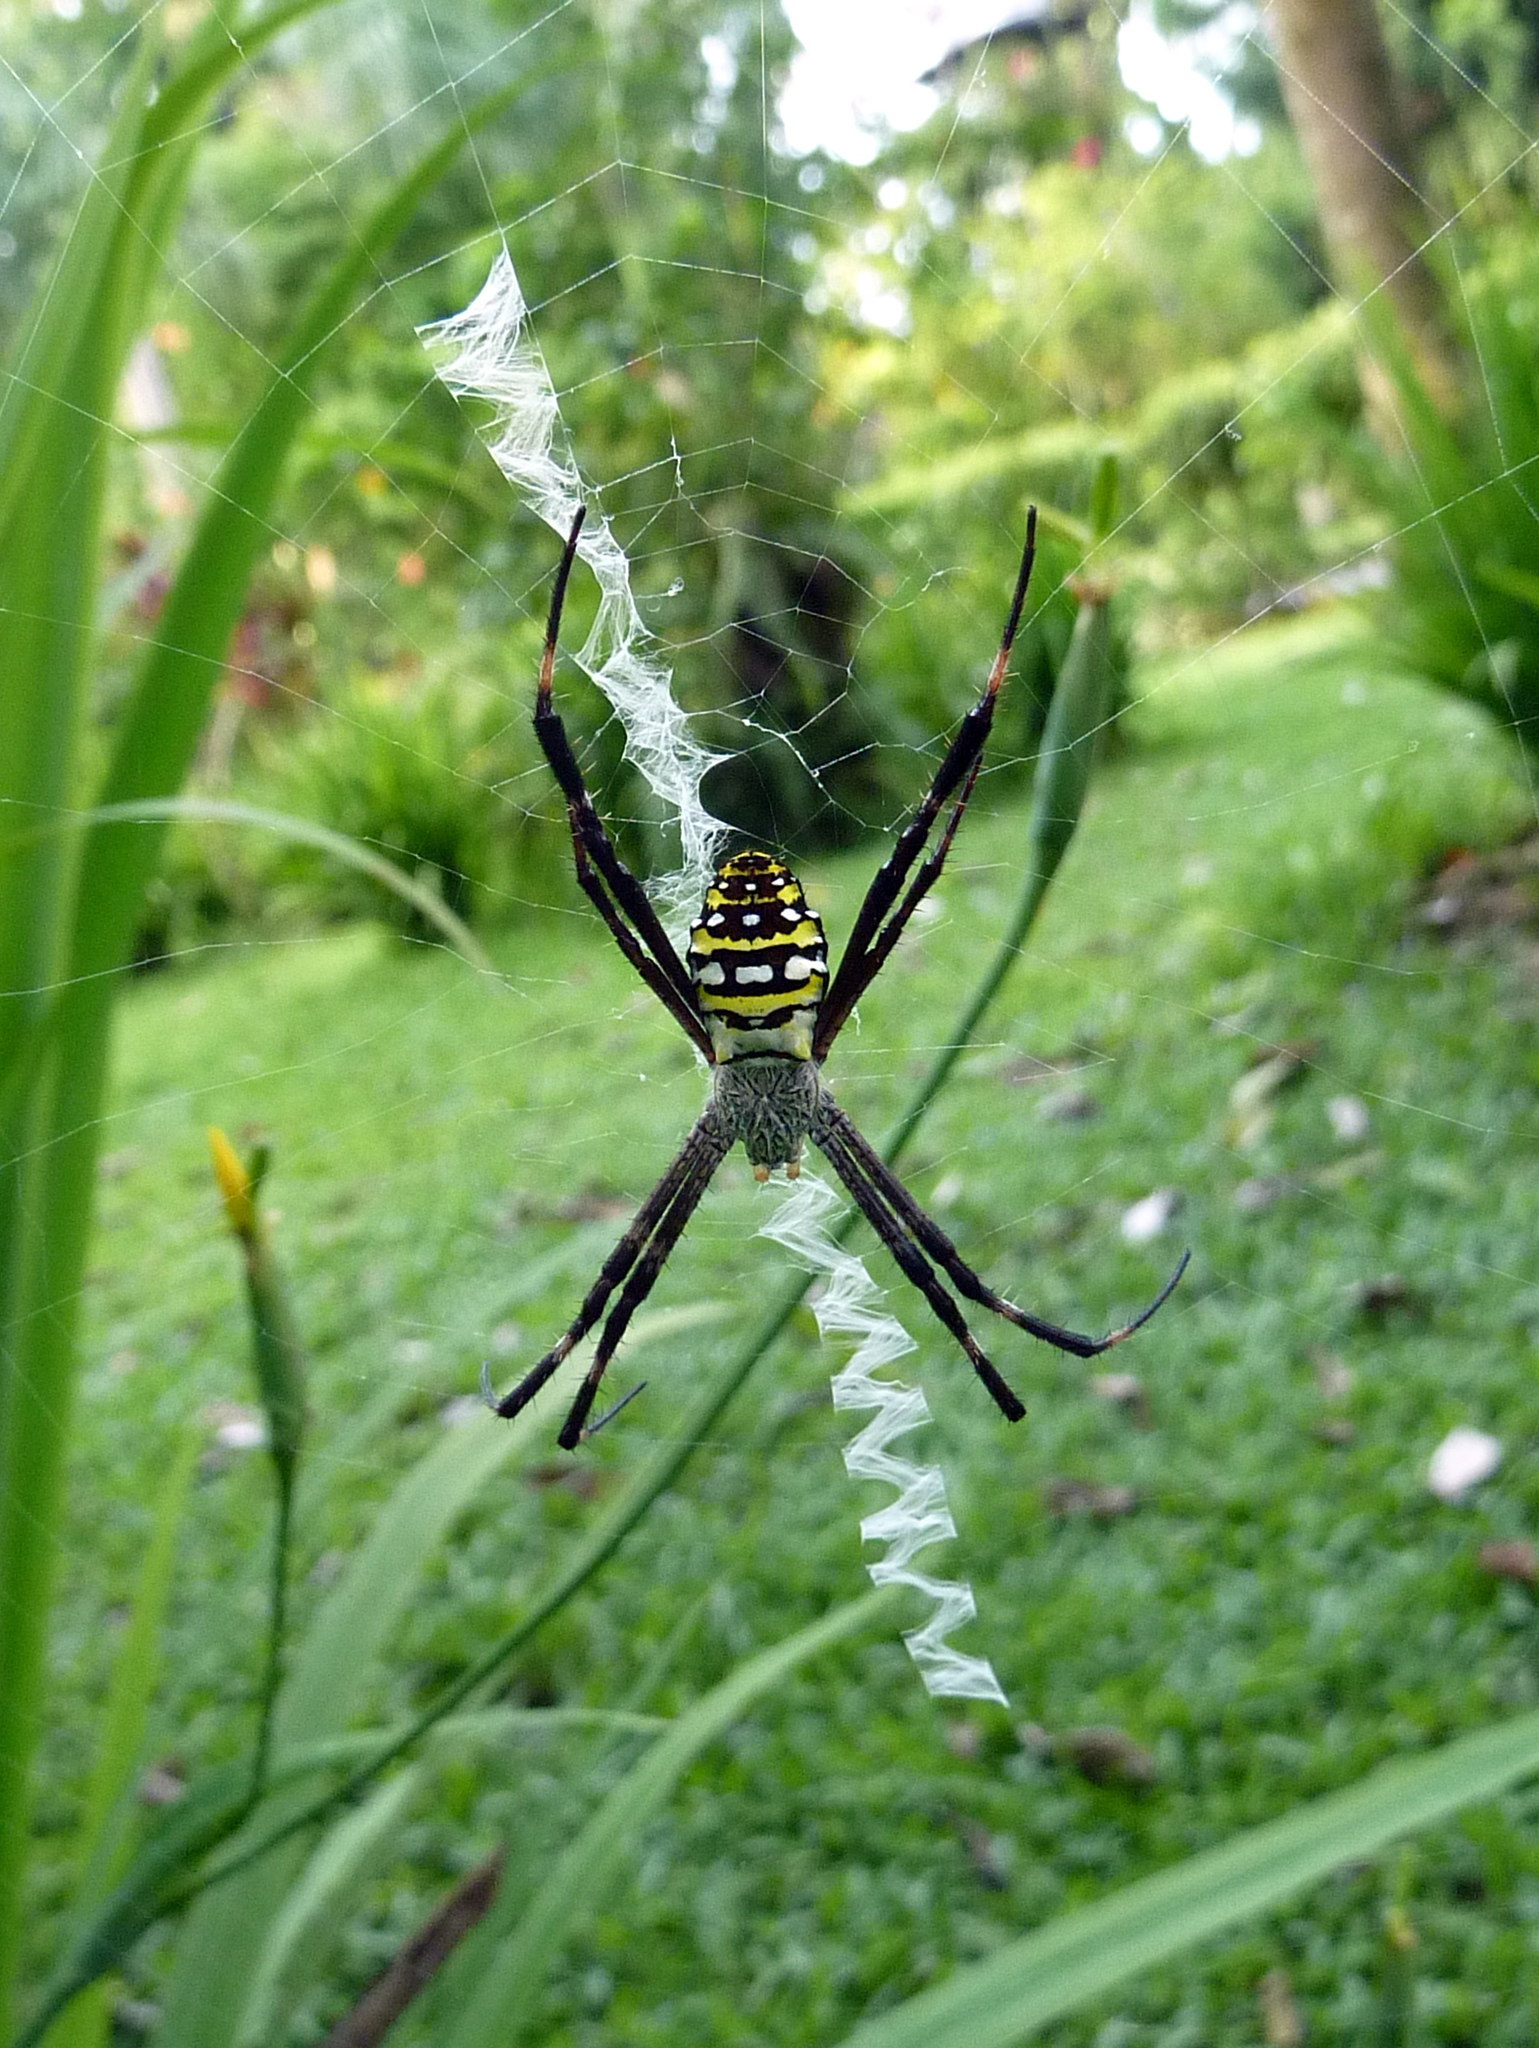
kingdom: Animalia
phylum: Arthropoda
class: Arachnida
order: Araneae
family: Araneidae
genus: Argiope
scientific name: Argiope picta
